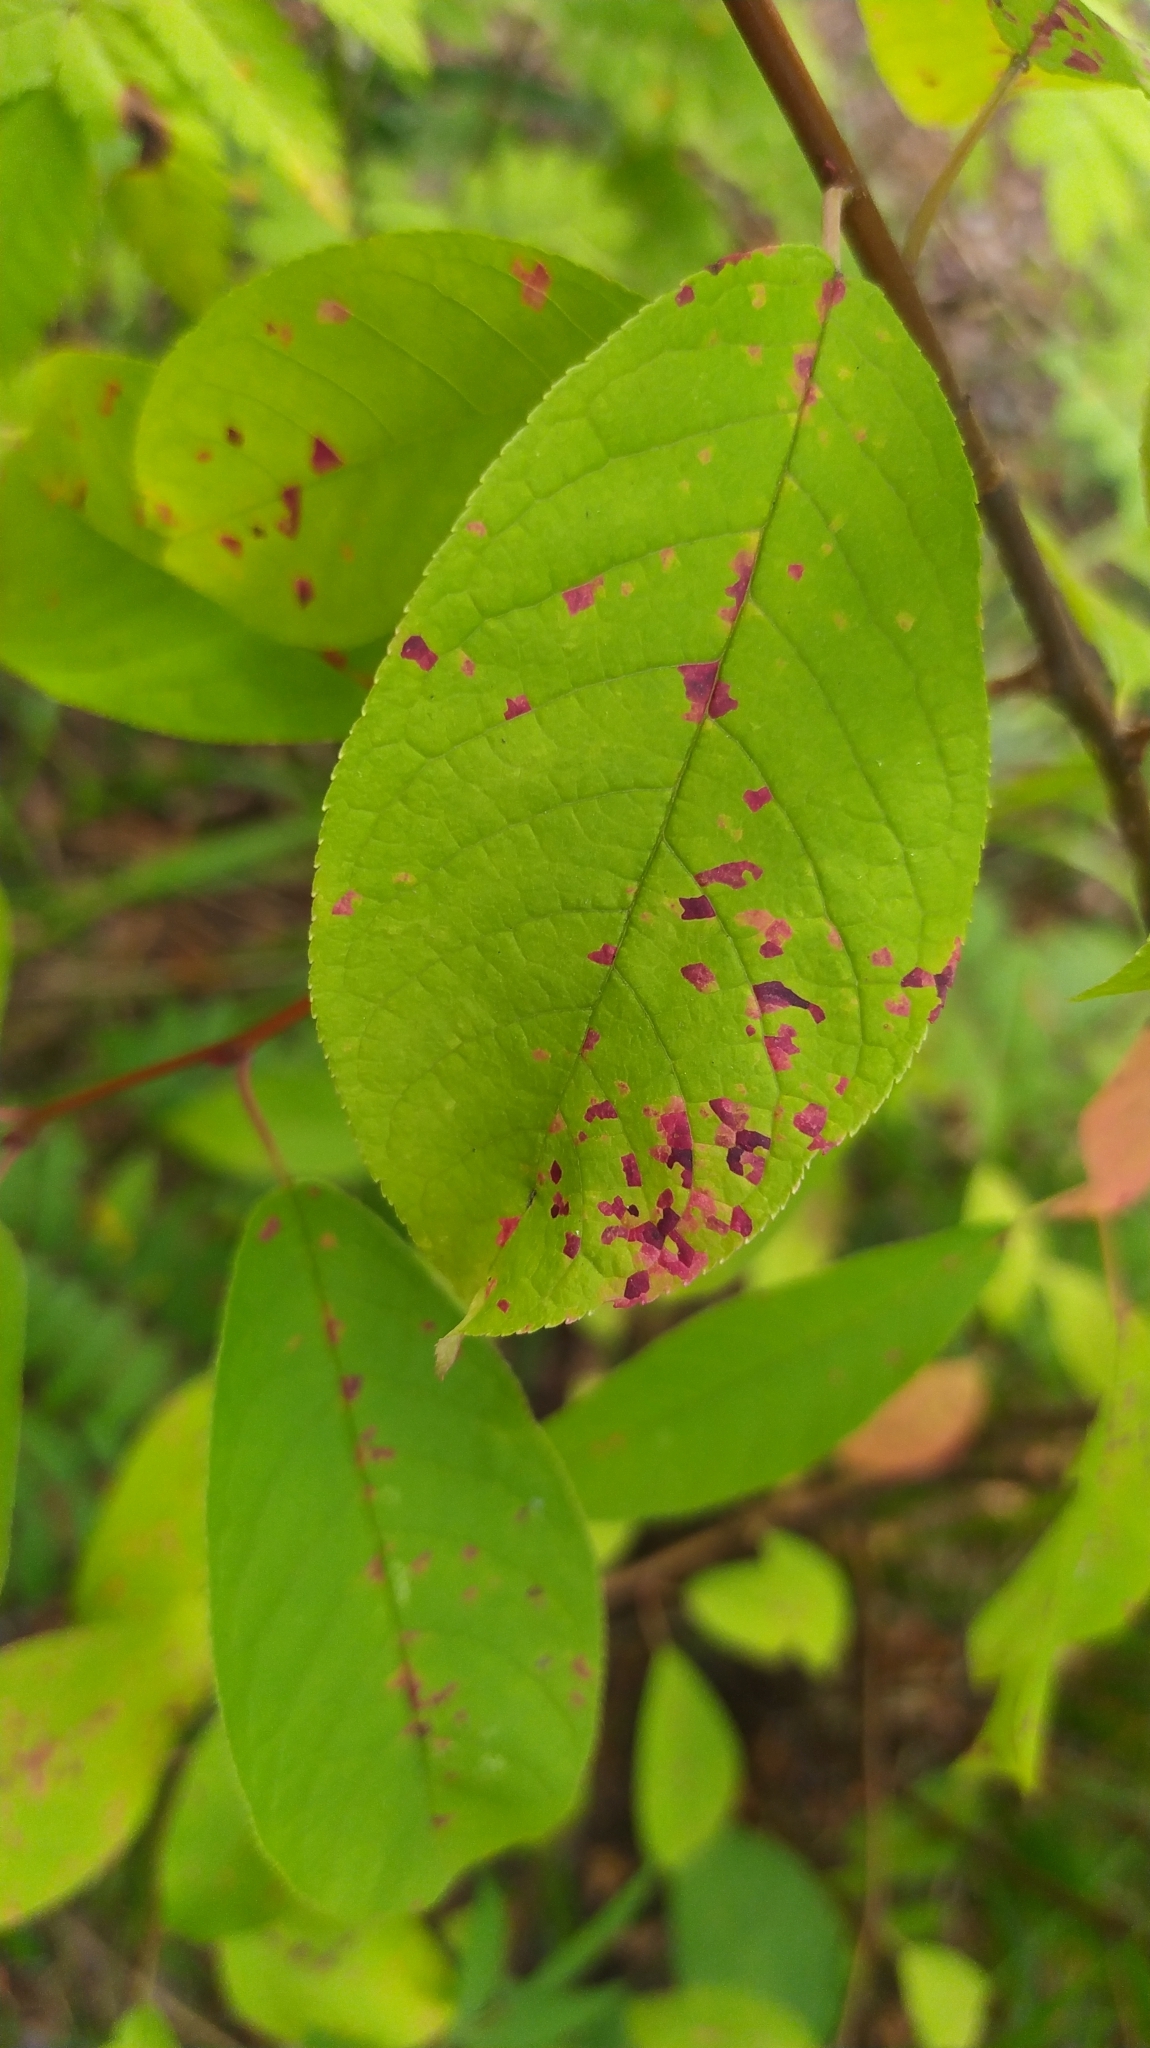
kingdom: Fungi
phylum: Basidiomycota
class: Pucciniomycetes
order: Pucciniales
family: Pucciniastraceae
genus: Thekopsora
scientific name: Thekopsora areolata
